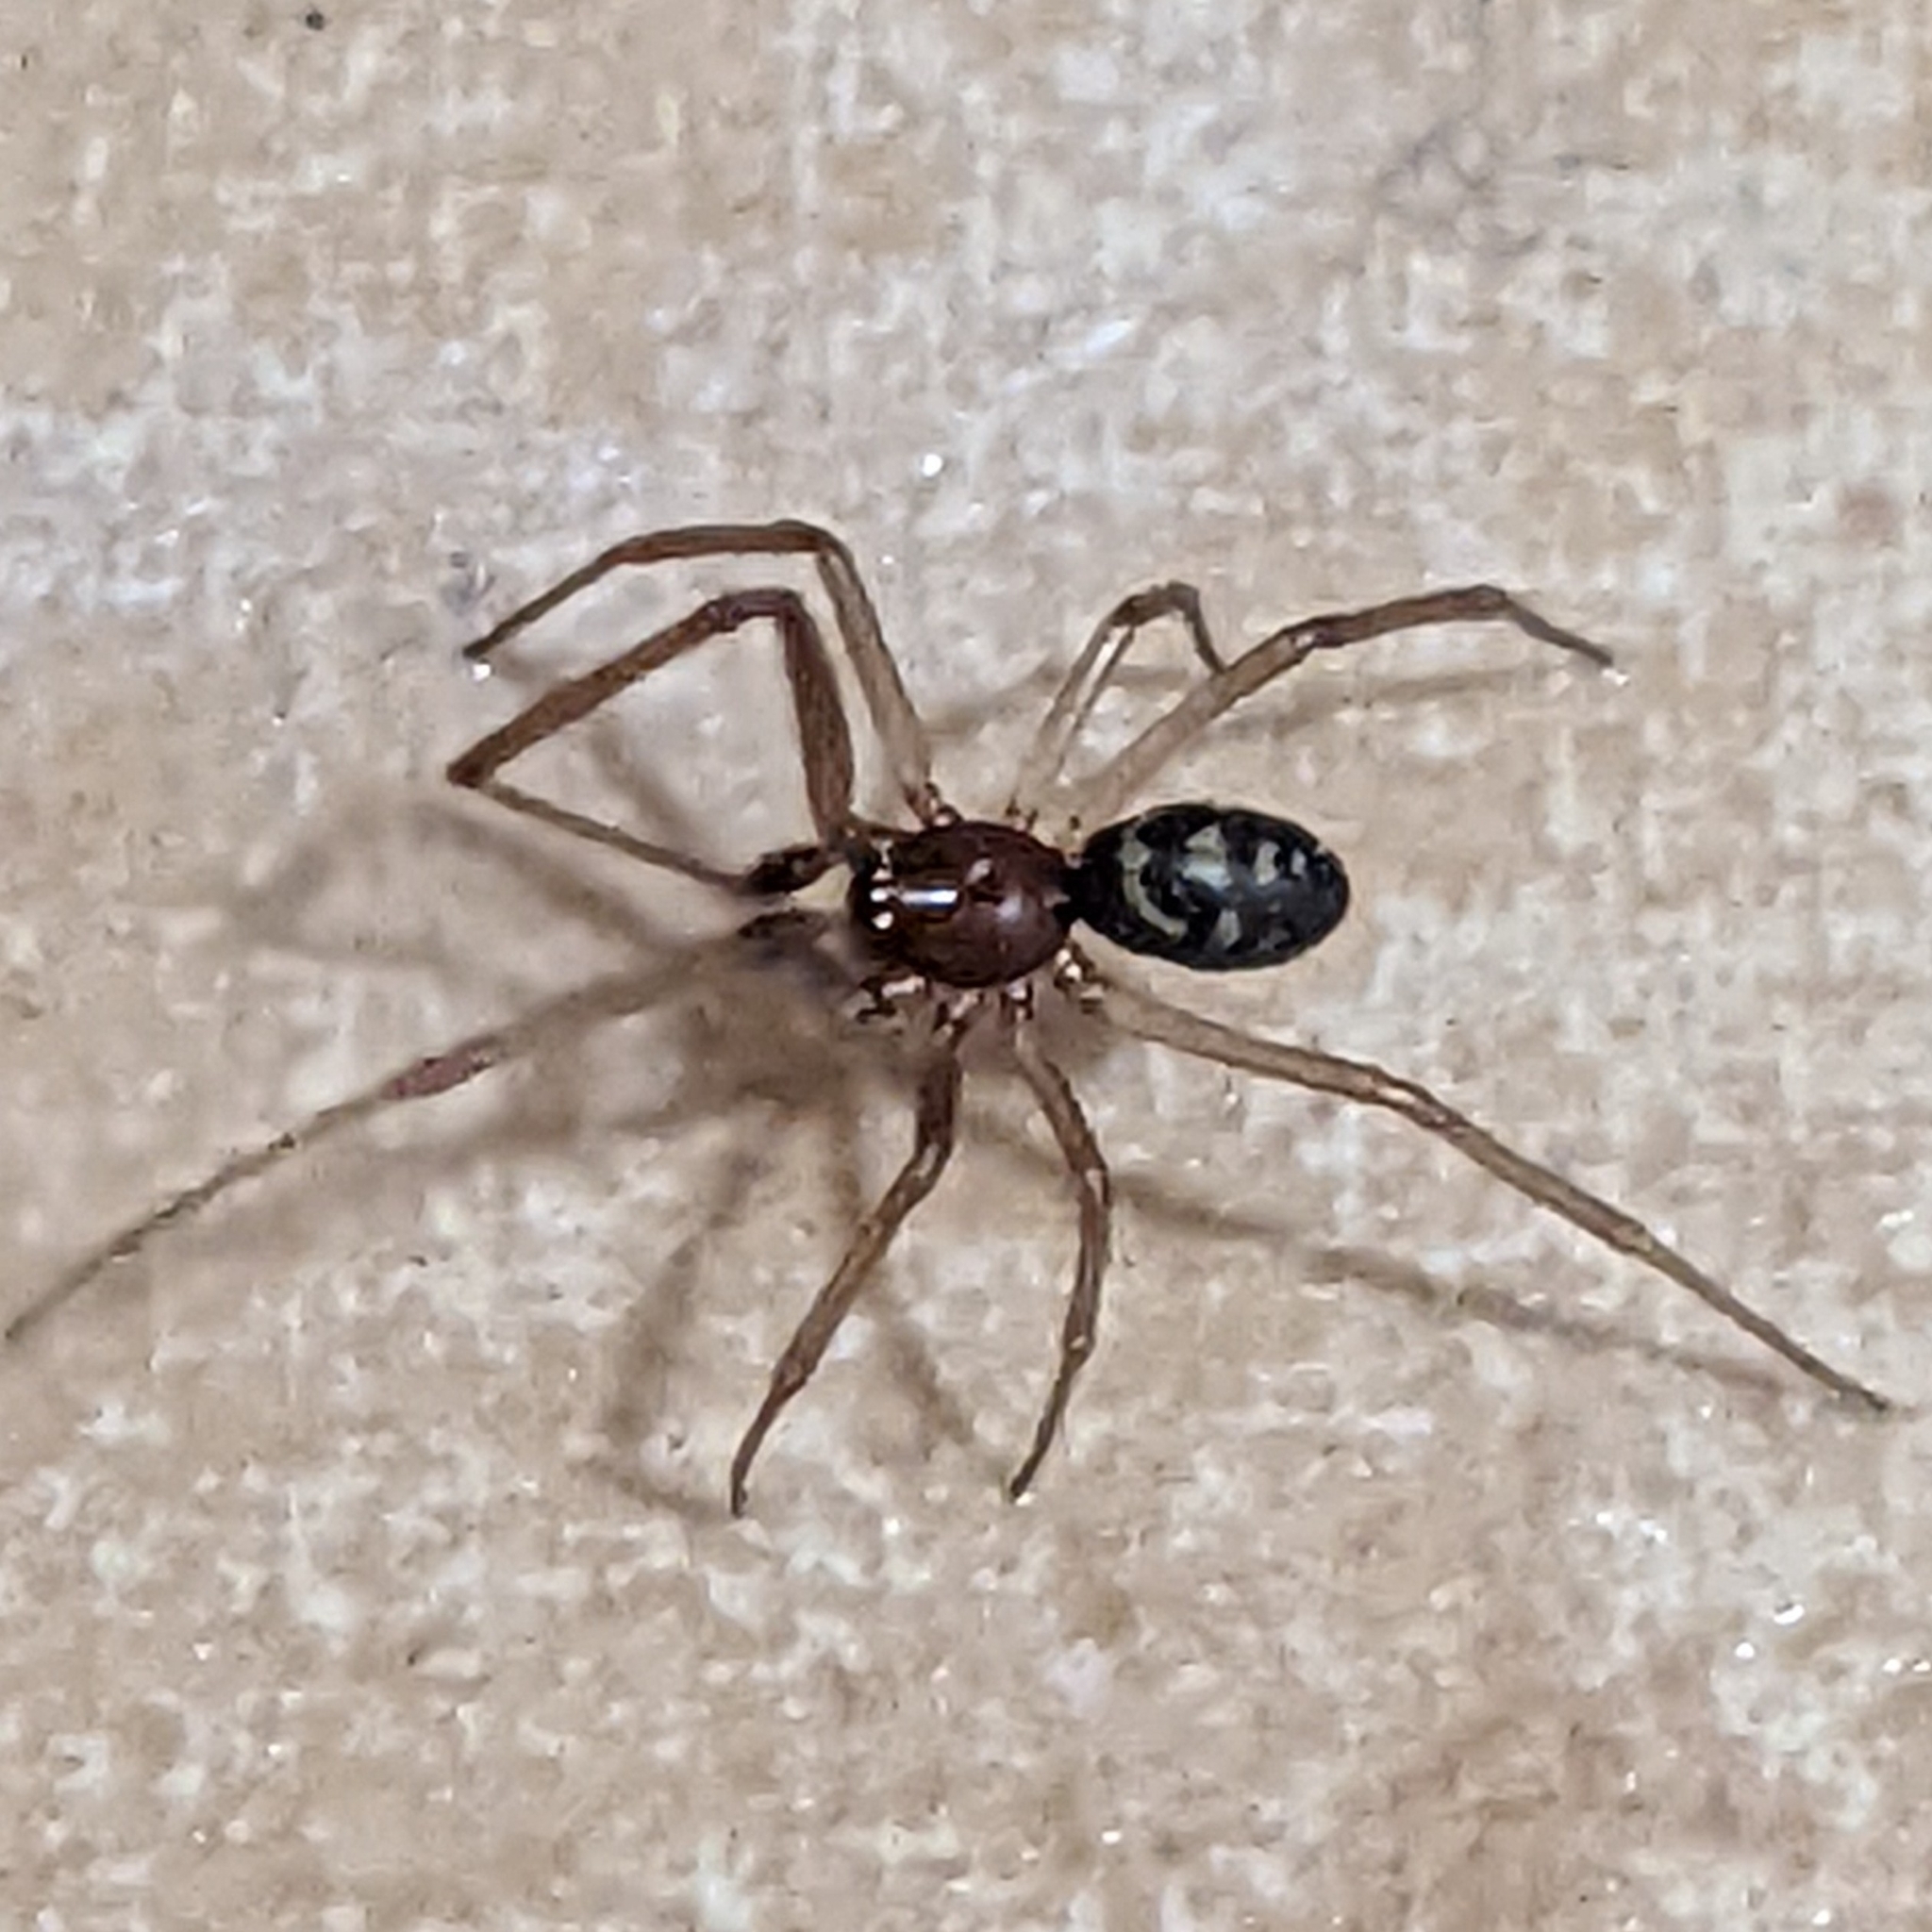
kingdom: Animalia
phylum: Arthropoda
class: Arachnida
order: Araneae
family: Theridiidae
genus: Steatoda
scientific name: Steatoda grossa
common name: False black widow
